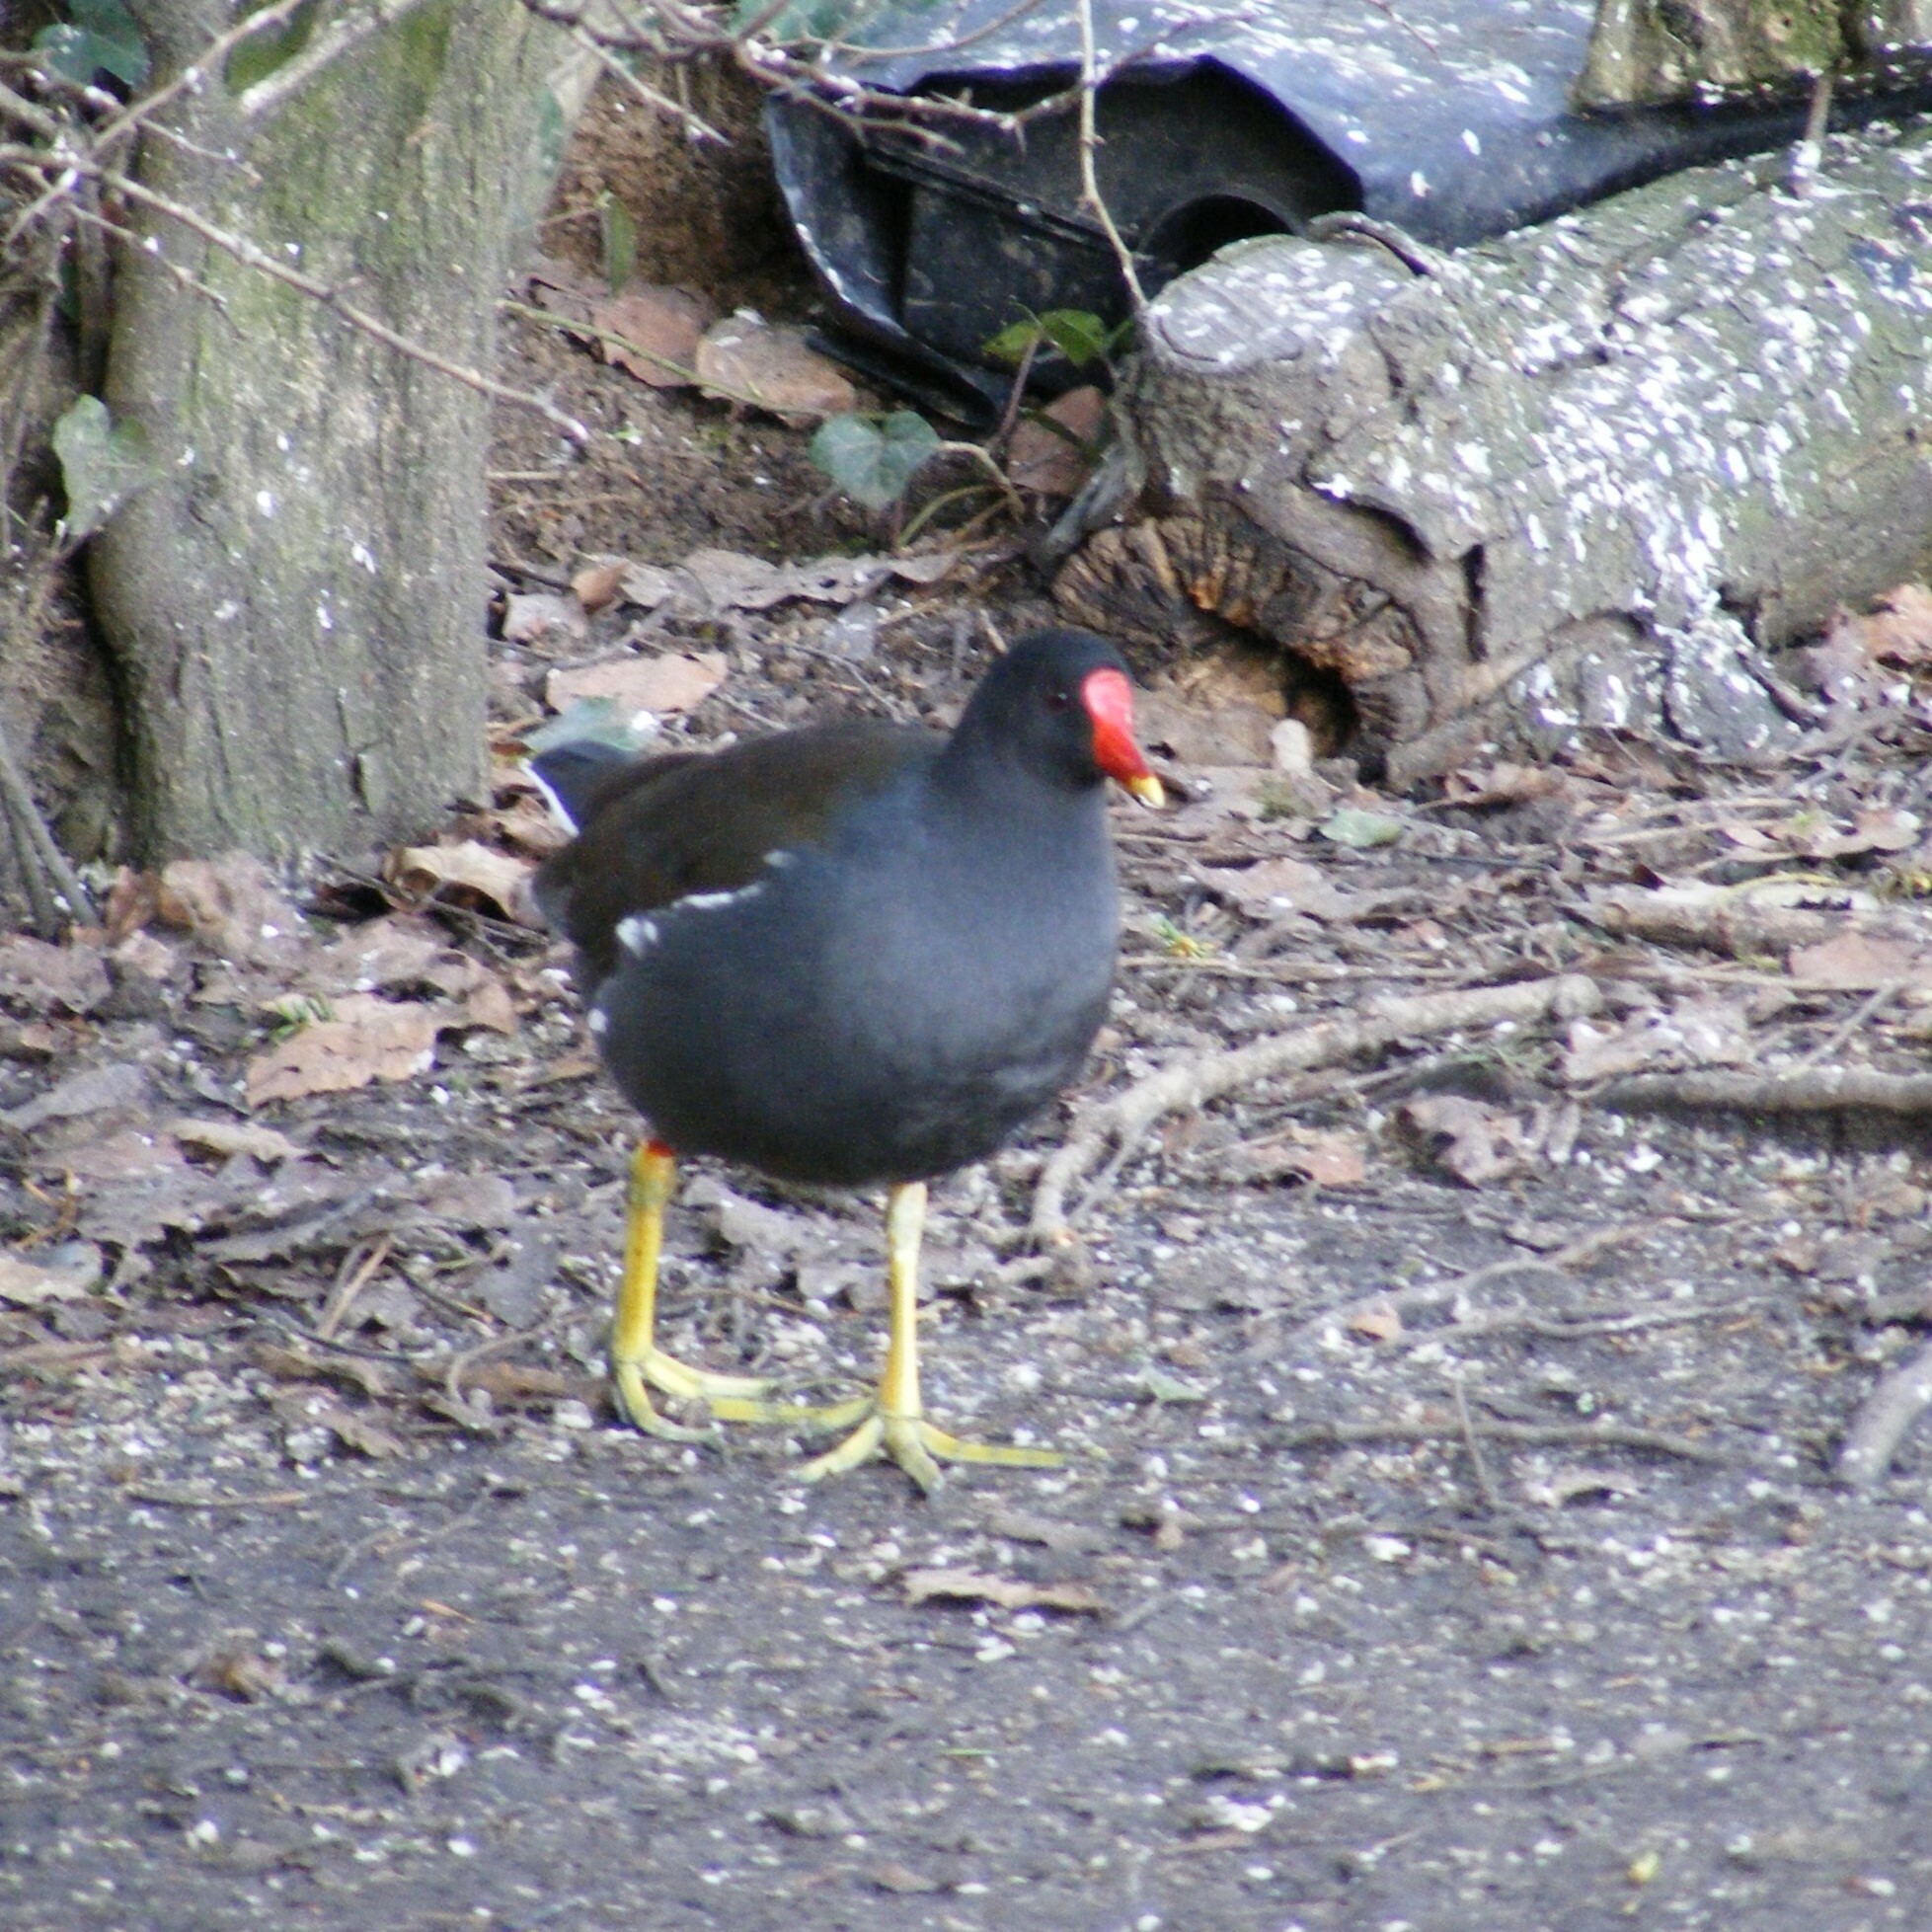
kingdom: Animalia
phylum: Chordata
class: Aves
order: Gruiformes
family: Rallidae
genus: Gallinula
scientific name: Gallinula chloropus
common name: Common moorhen
